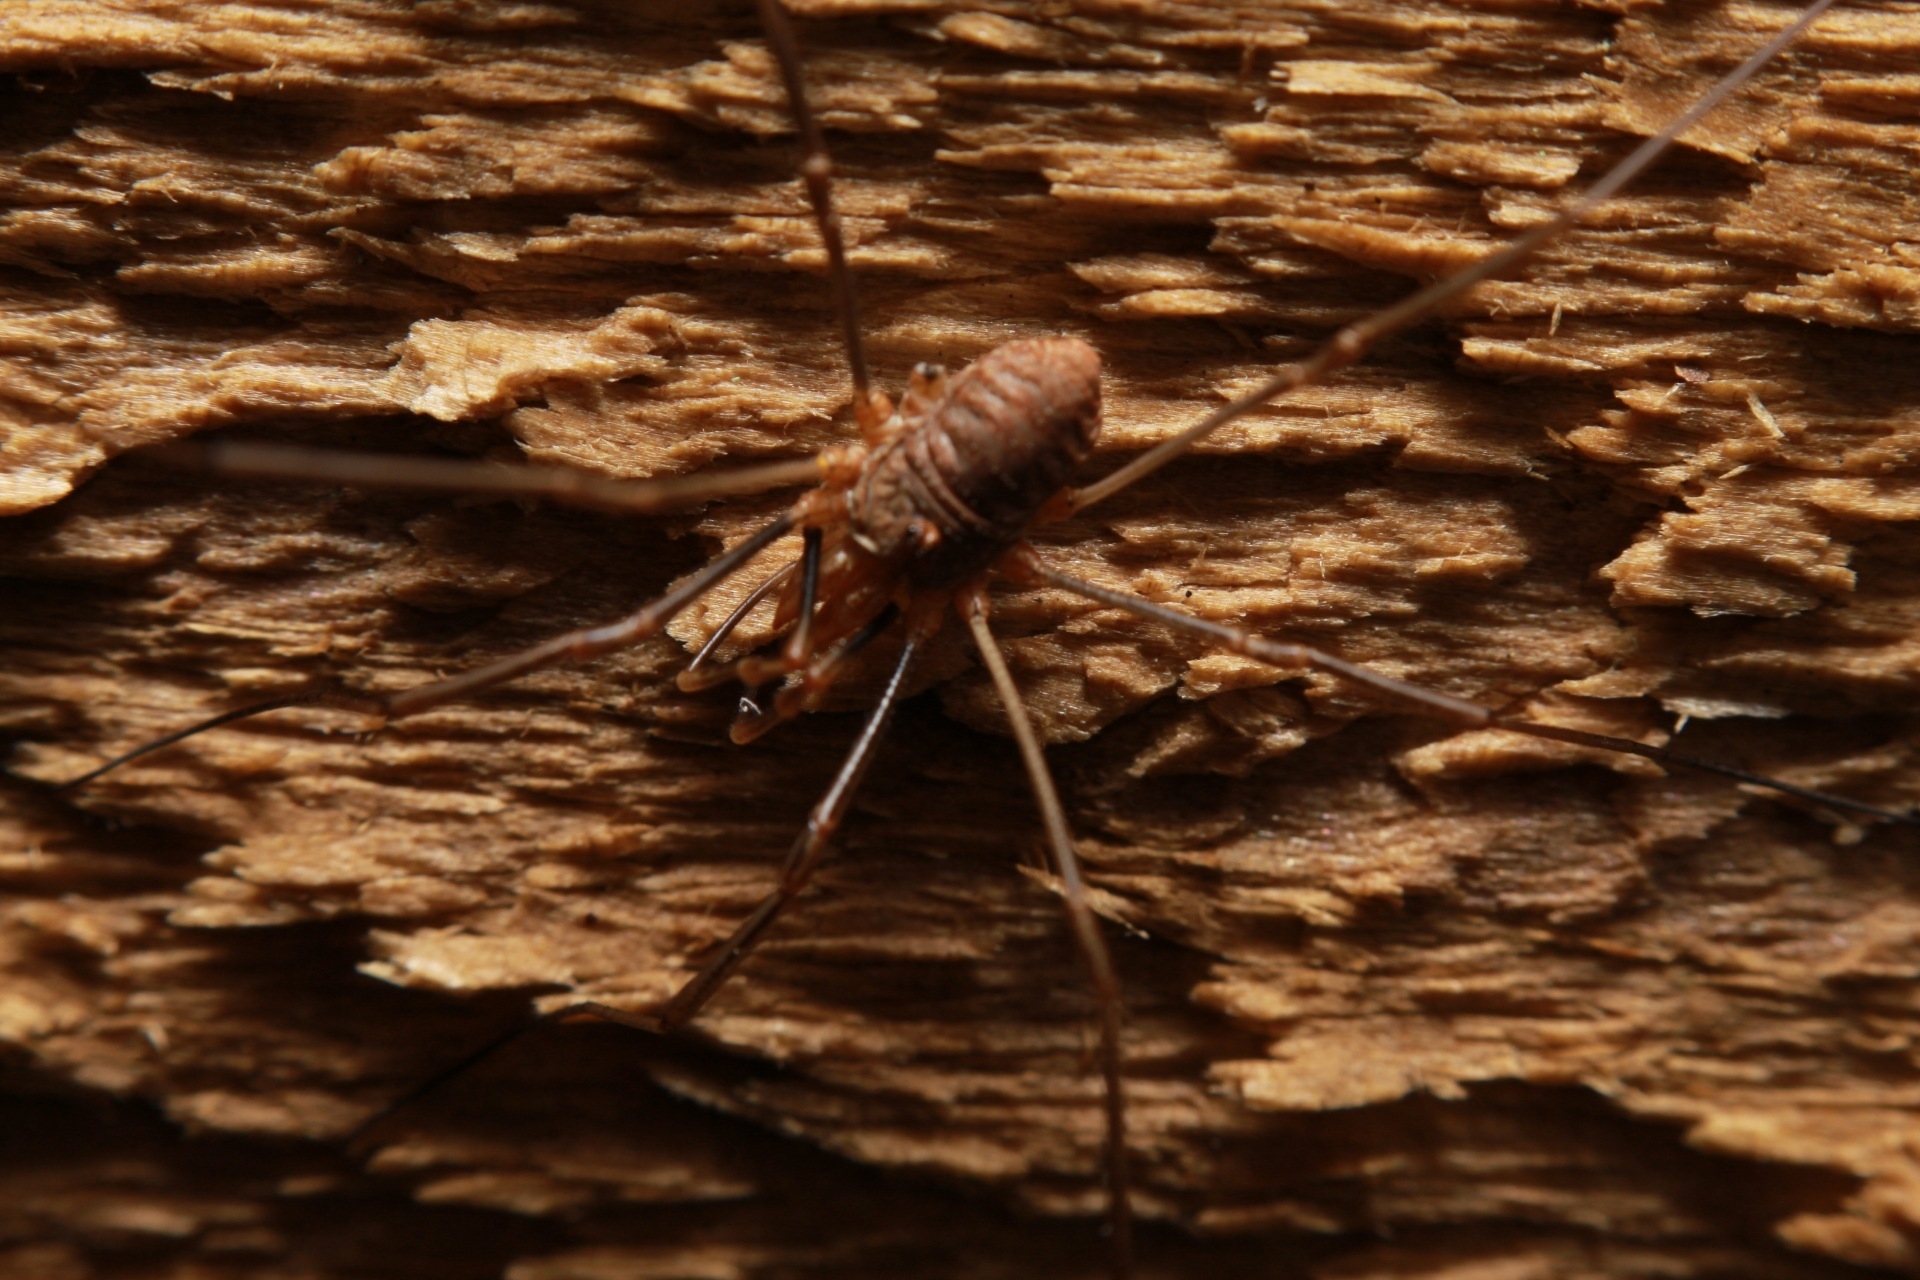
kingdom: Animalia
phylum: Arthropoda
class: Arachnida
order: Opiliones
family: Phalangiidae
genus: Phalangium
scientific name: Phalangium opilio
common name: Daddy longleg
